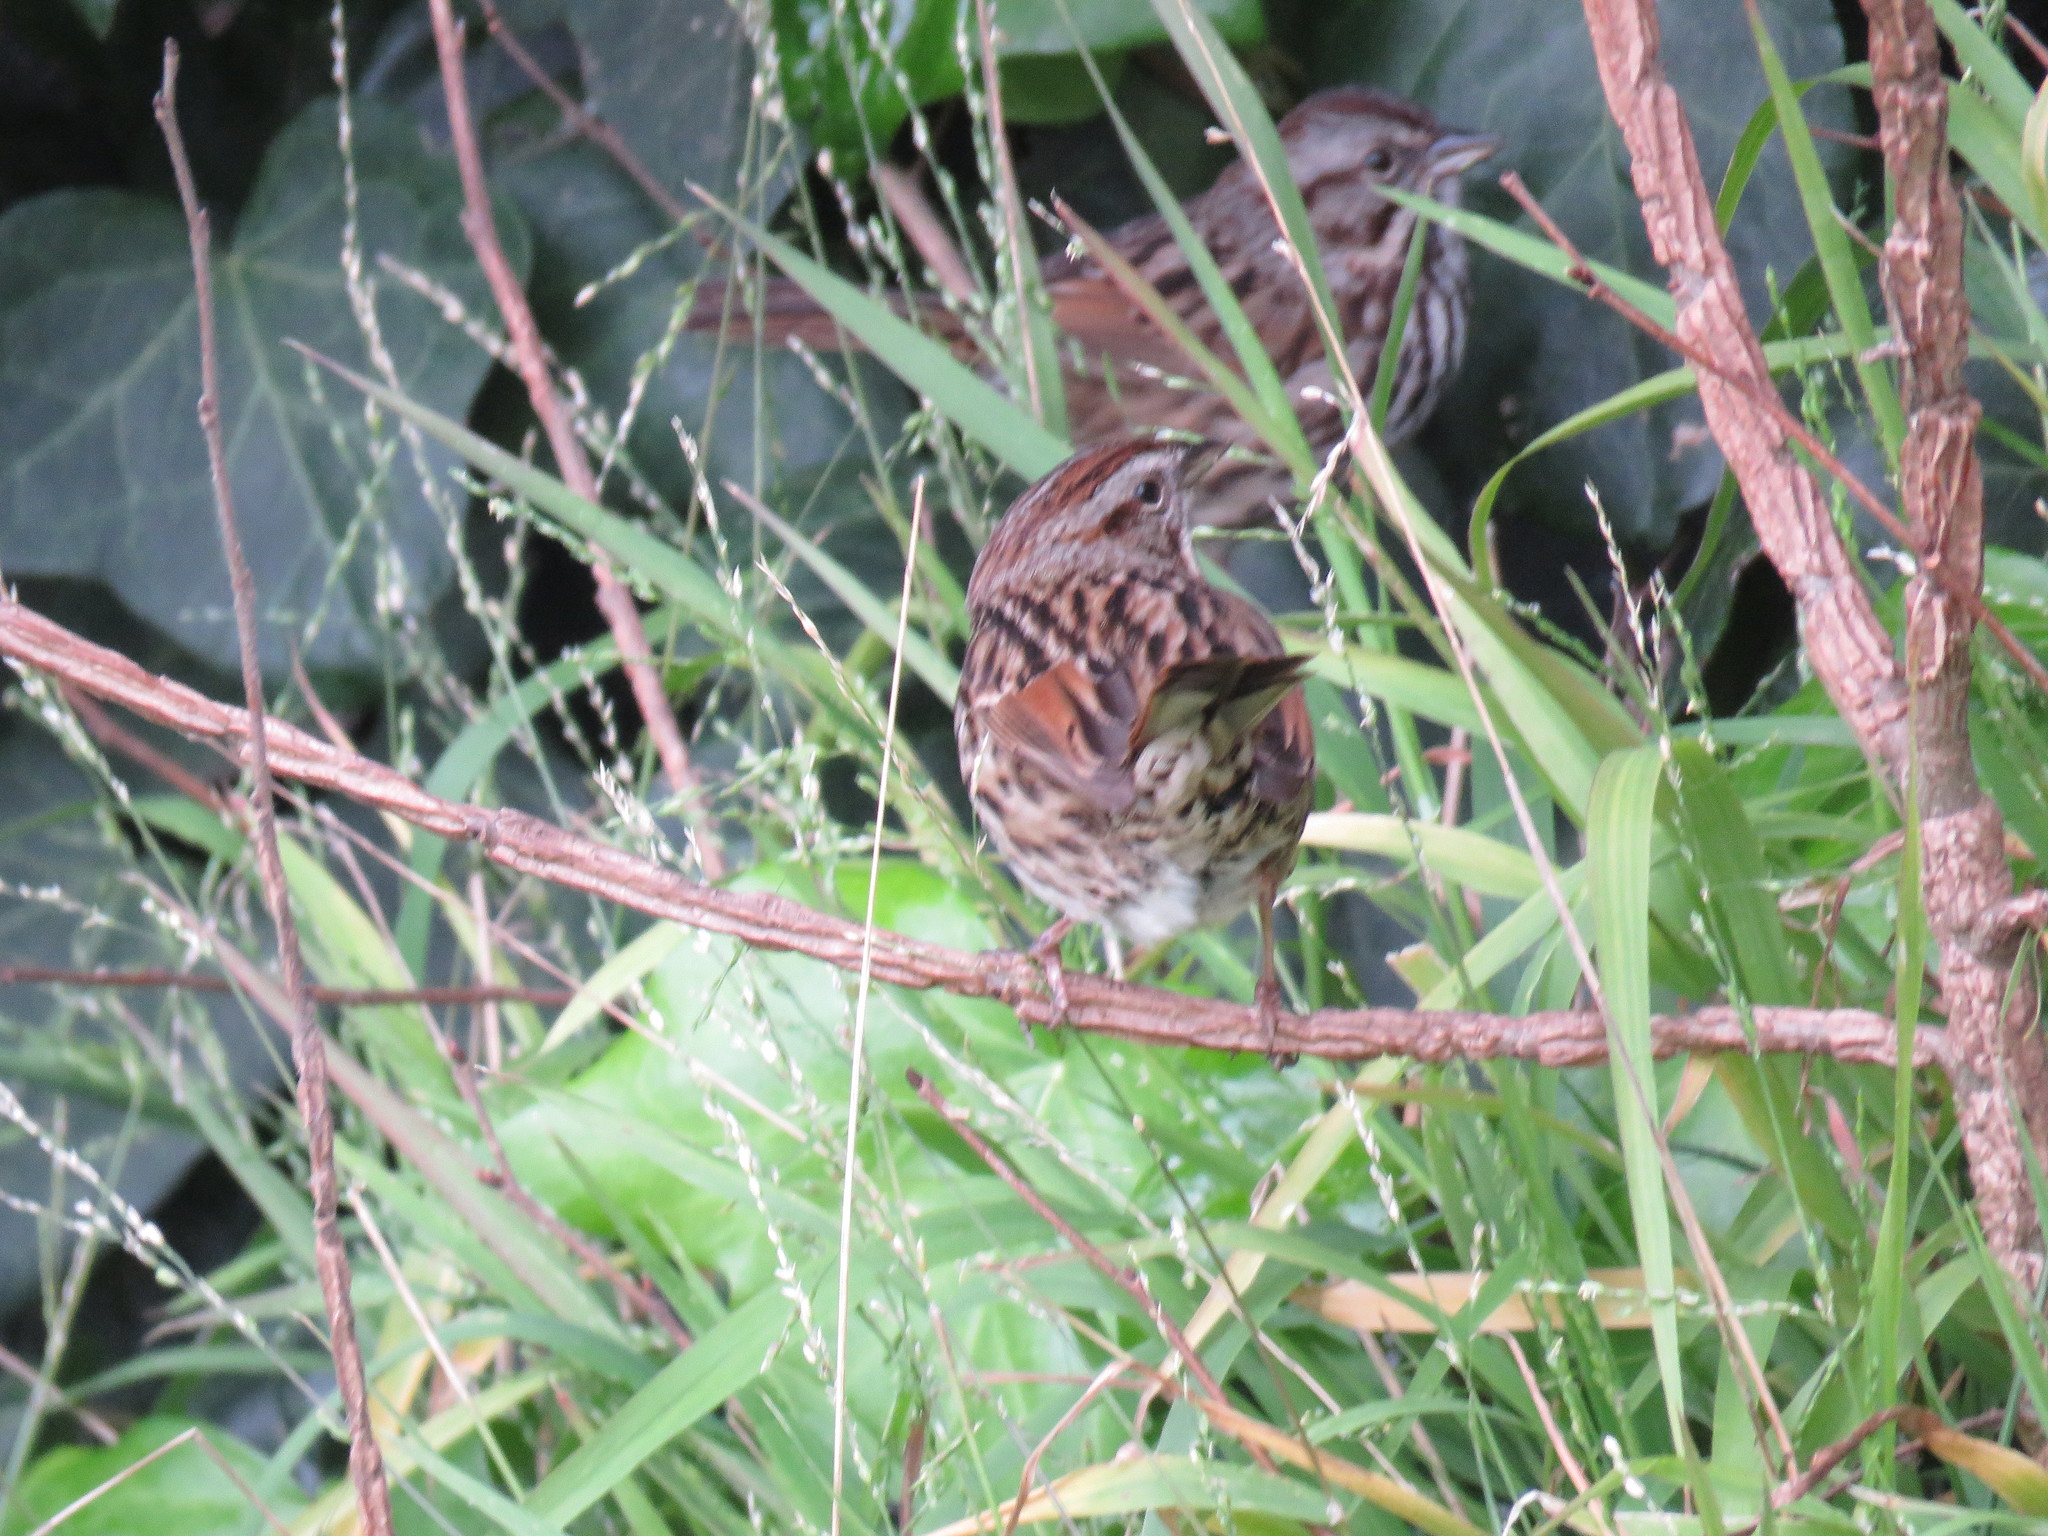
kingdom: Animalia
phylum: Chordata
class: Aves
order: Passeriformes
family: Passerellidae
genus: Melospiza
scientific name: Melospiza melodia
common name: Song sparrow
